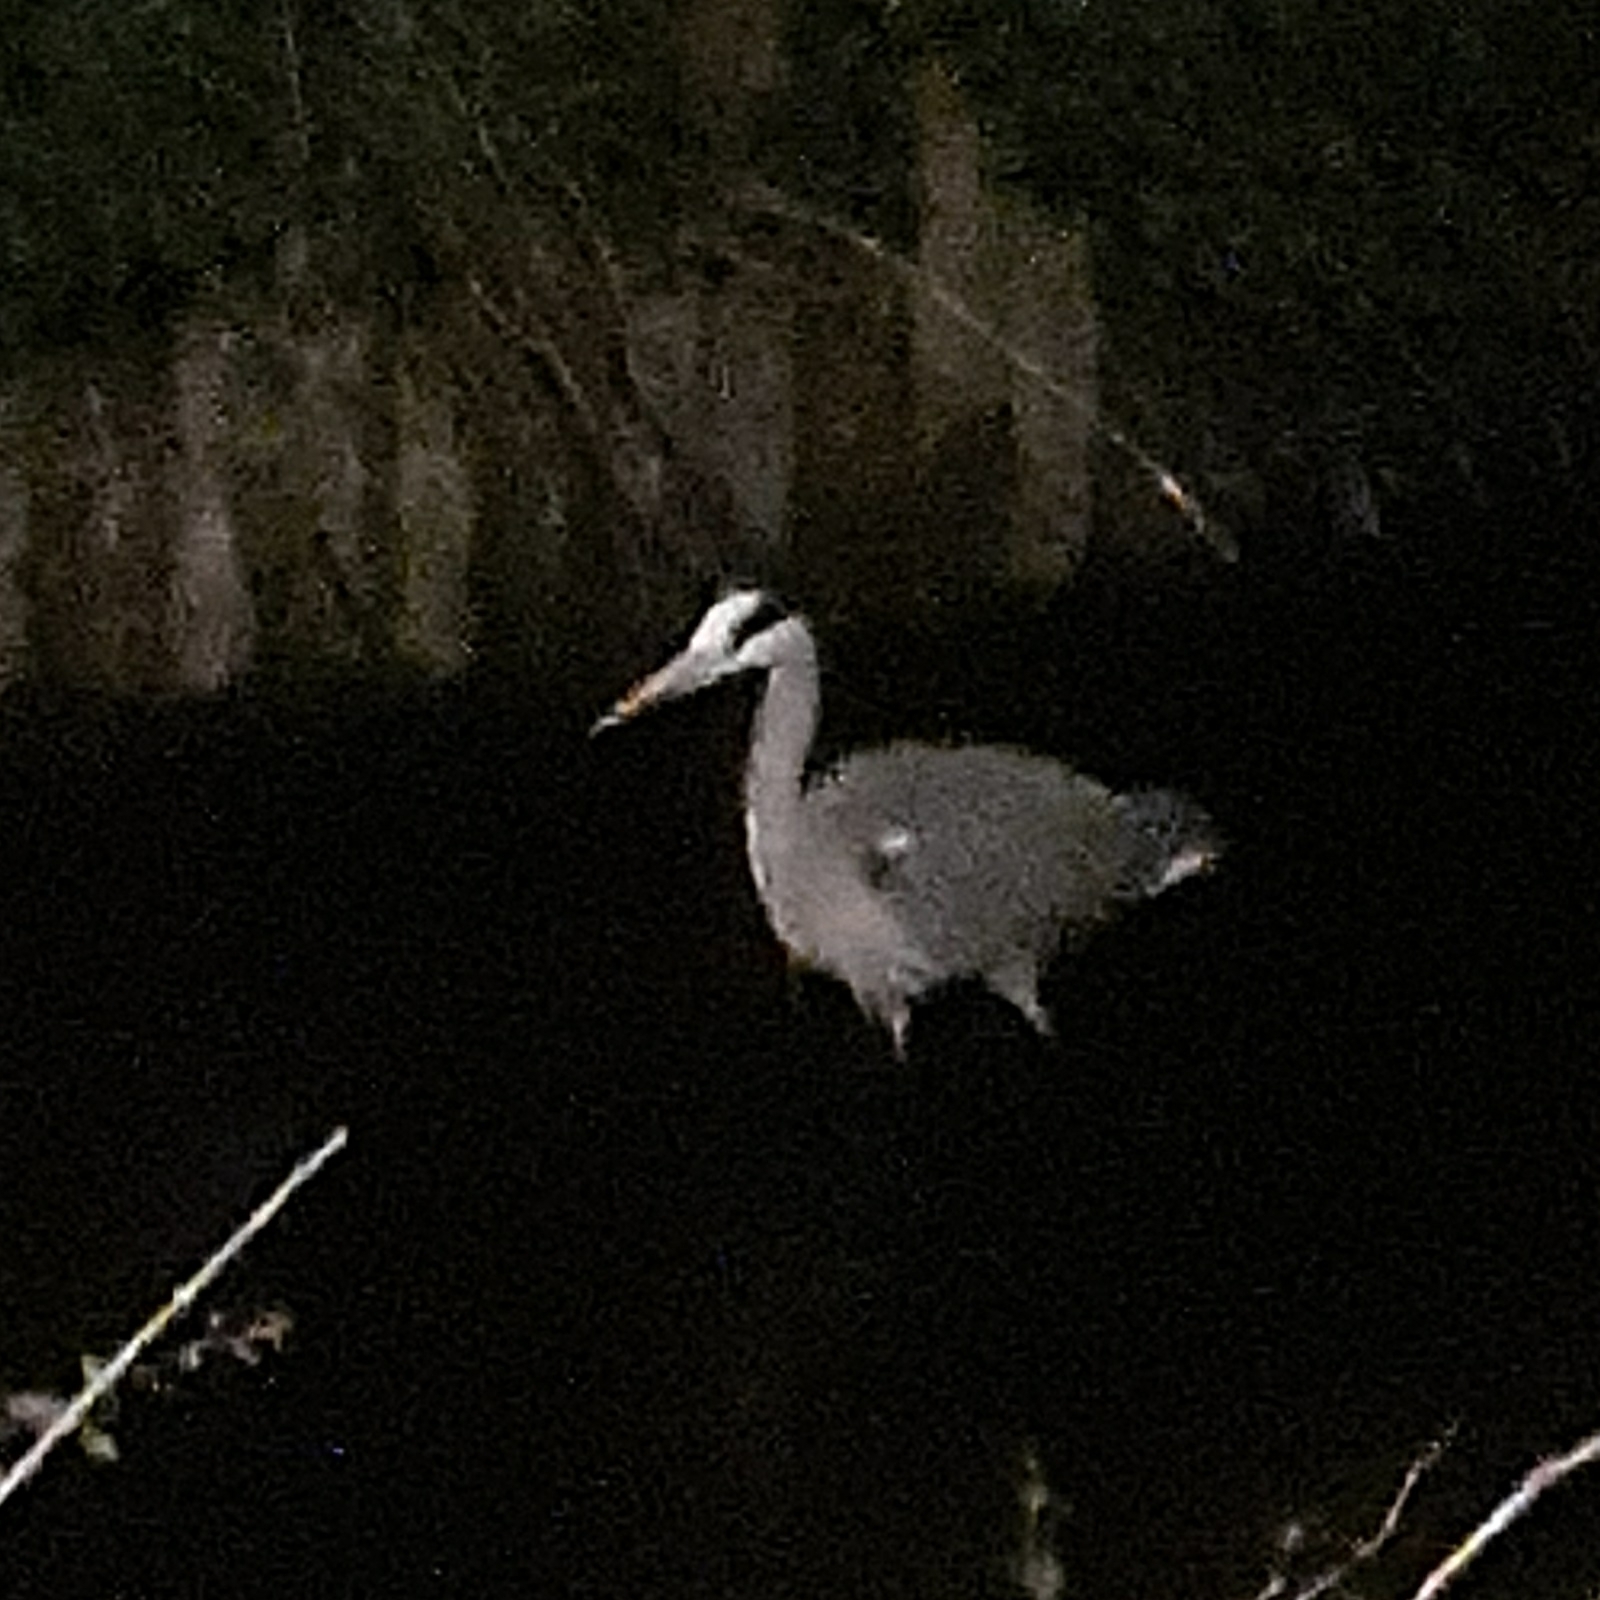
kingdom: Animalia
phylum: Chordata
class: Aves
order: Pelecaniformes
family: Ardeidae
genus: Ardea
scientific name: Ardea cinerea
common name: Grey heron
